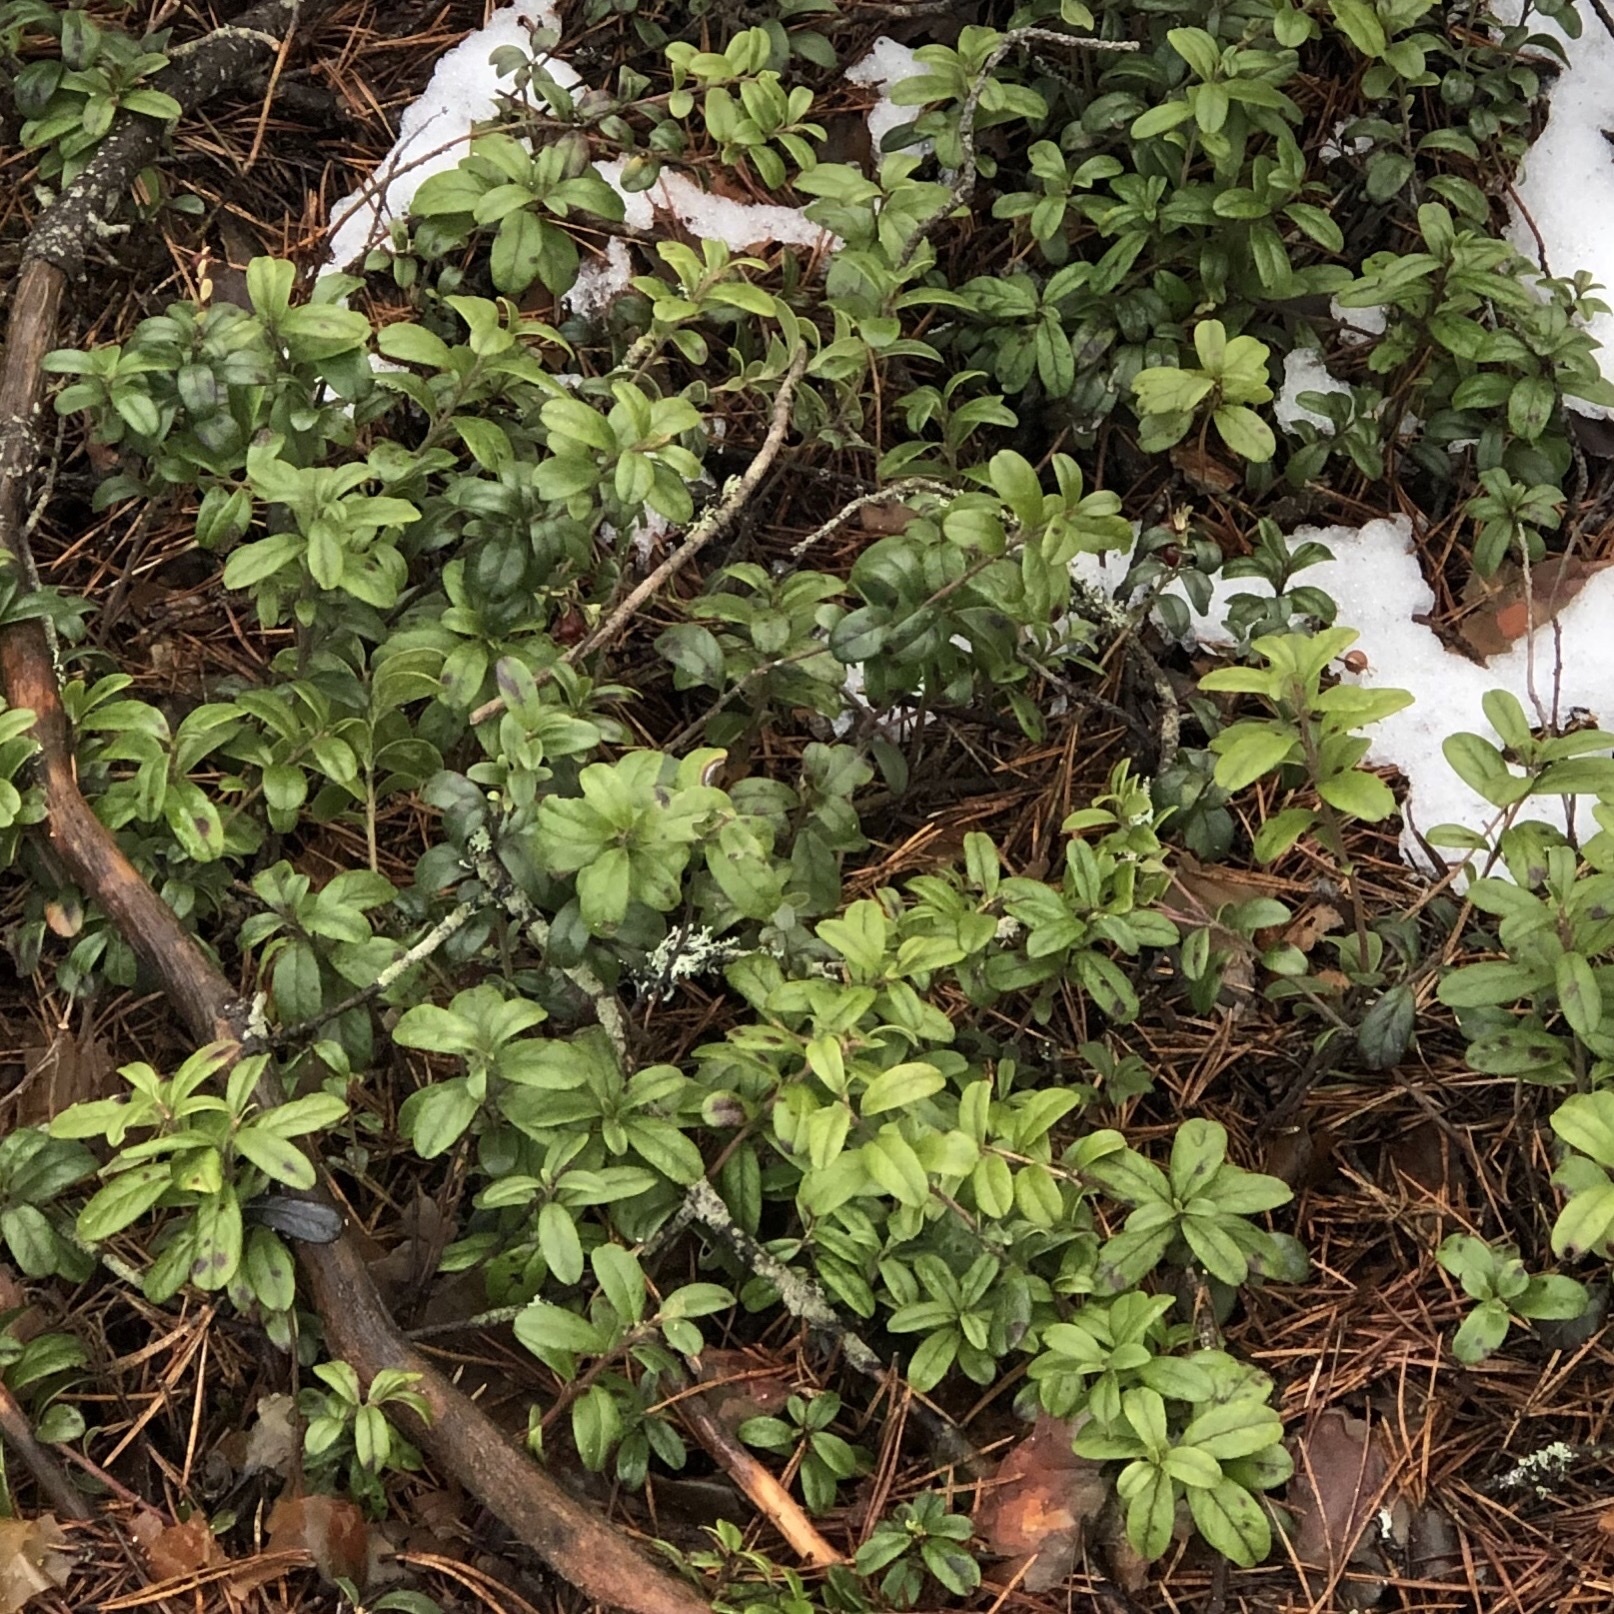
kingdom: Plantae
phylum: Tracheophyta
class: Magnoliopsida
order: Ericales
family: Ericaceae
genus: Vaccinium
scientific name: Vaccinium vitis-idaea
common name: Cowberry
